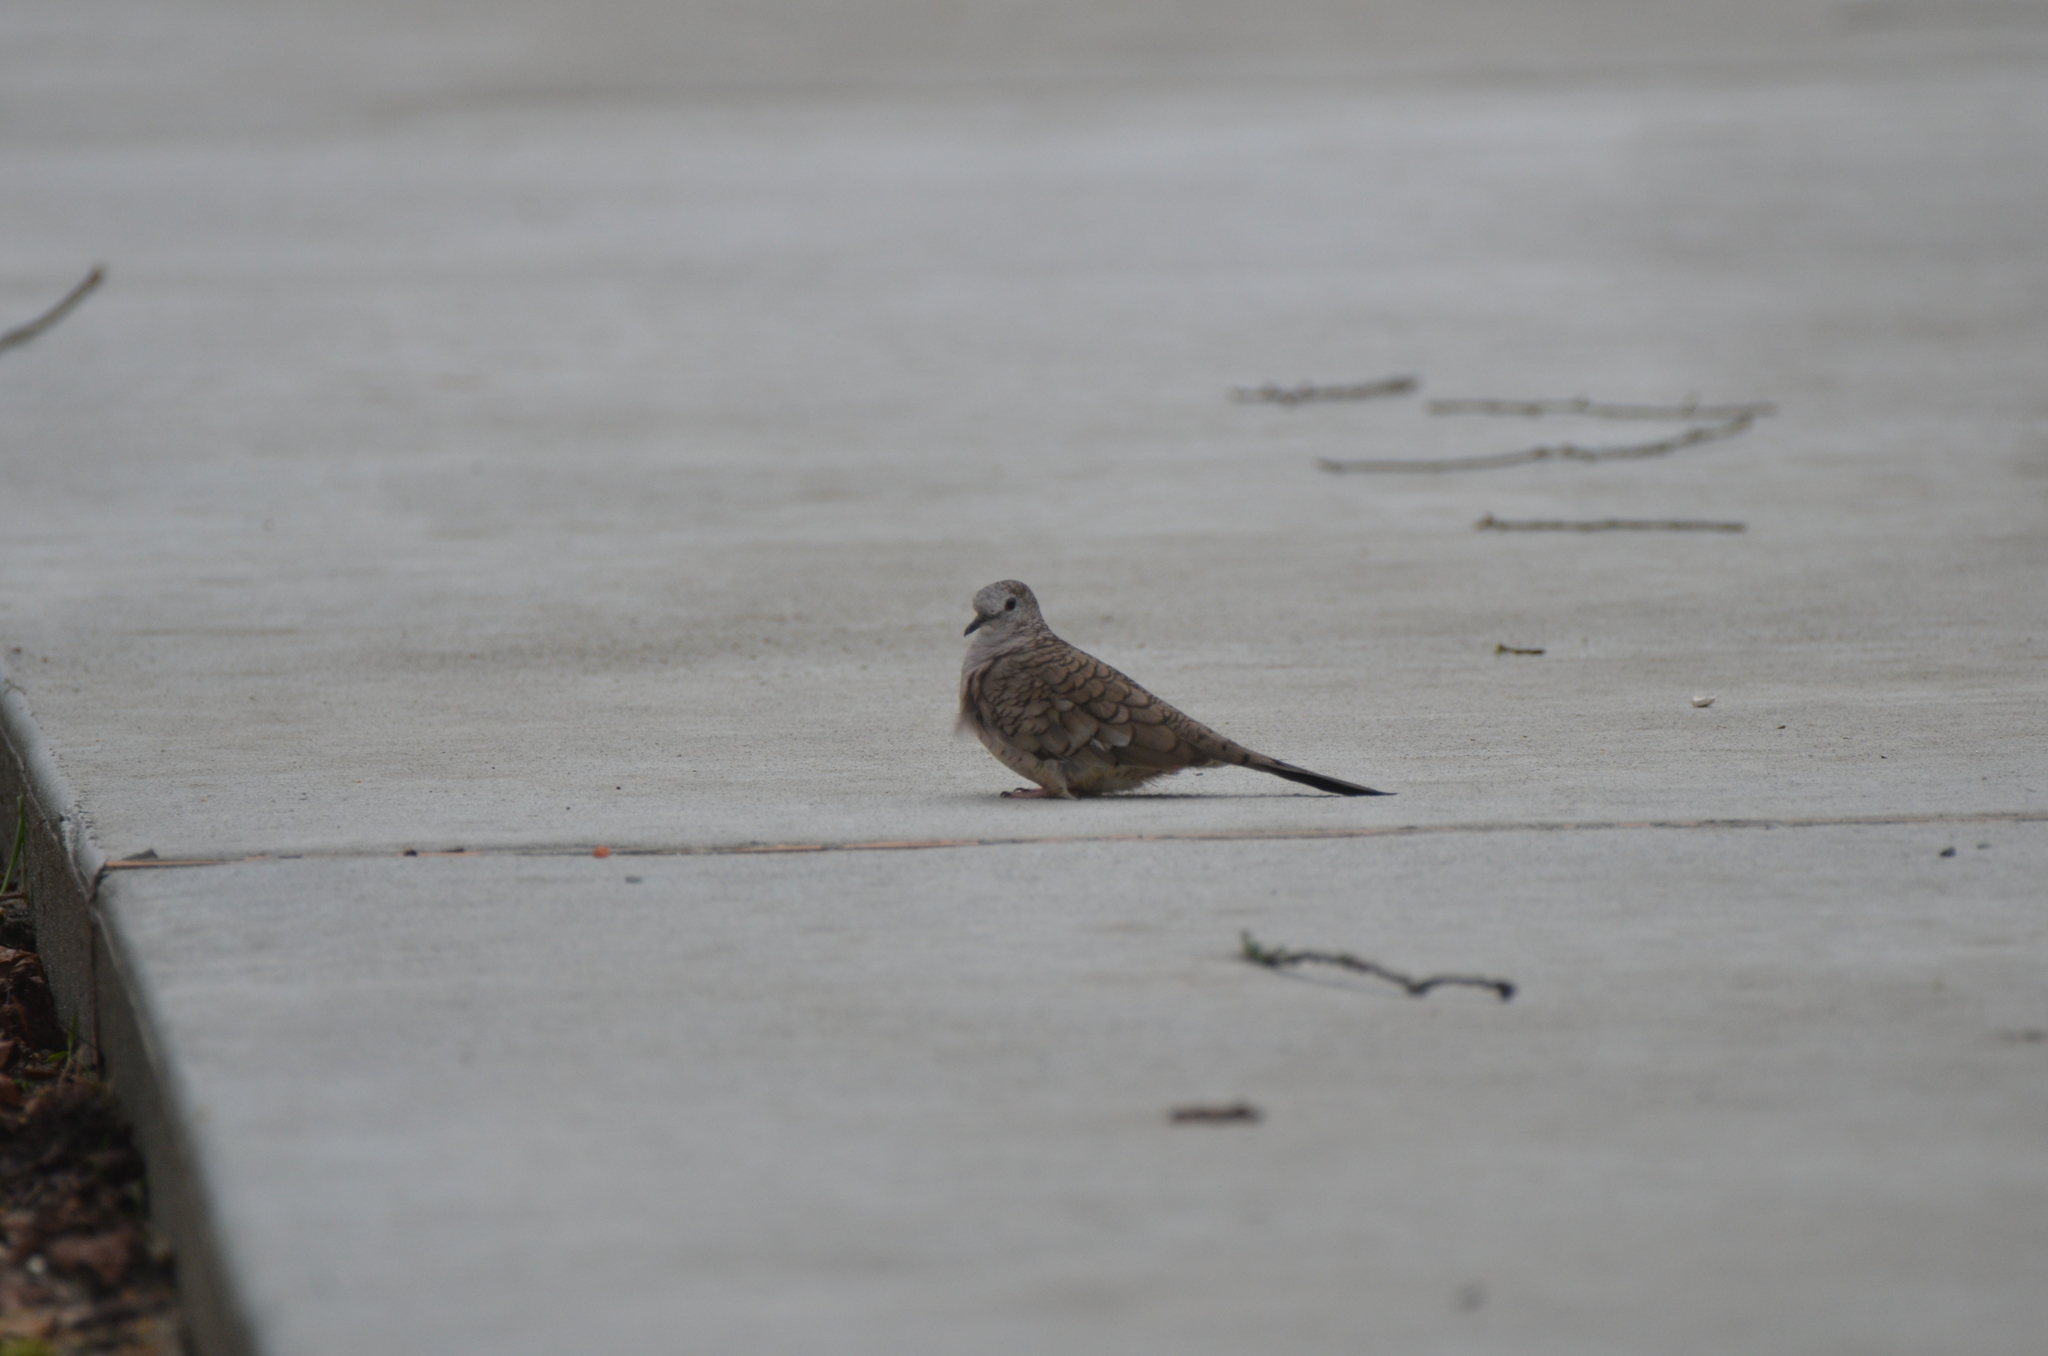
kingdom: Animalia
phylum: Chordata
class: Aves
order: Columbiformes
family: Columbidae
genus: Columbina
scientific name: Columbina inca
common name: Inca dove
